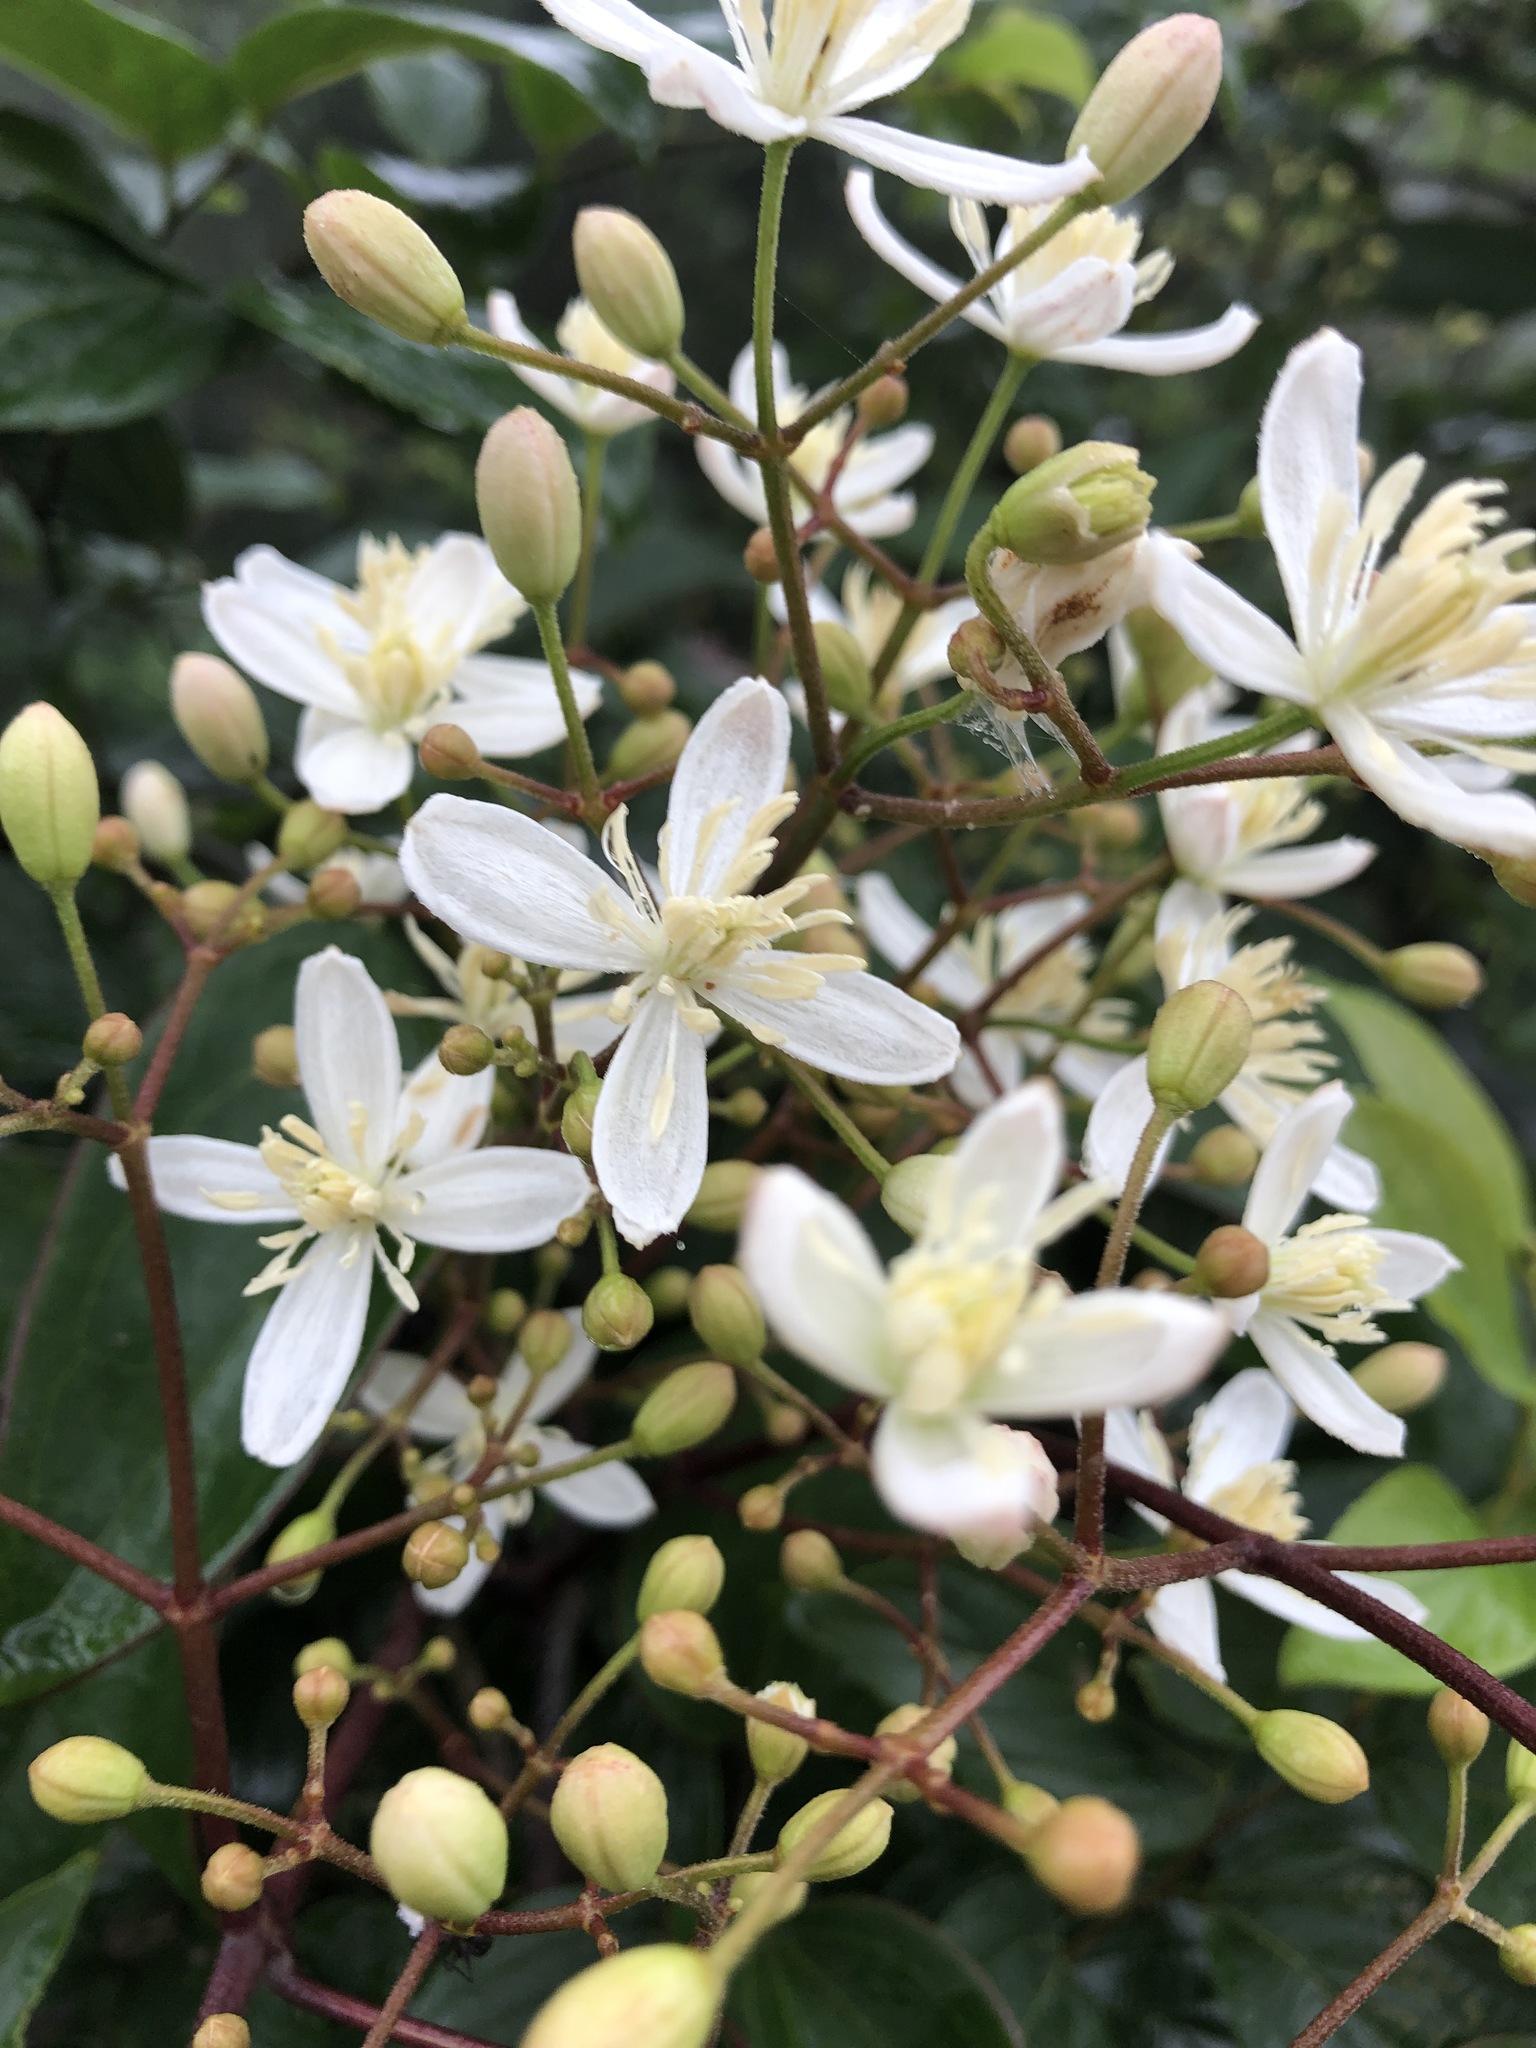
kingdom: Plantae
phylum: Tracheophyta
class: Magnoliopsida
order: Ranunculales
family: Ranunculaceae
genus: Clematis
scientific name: Clematis meyeniana
